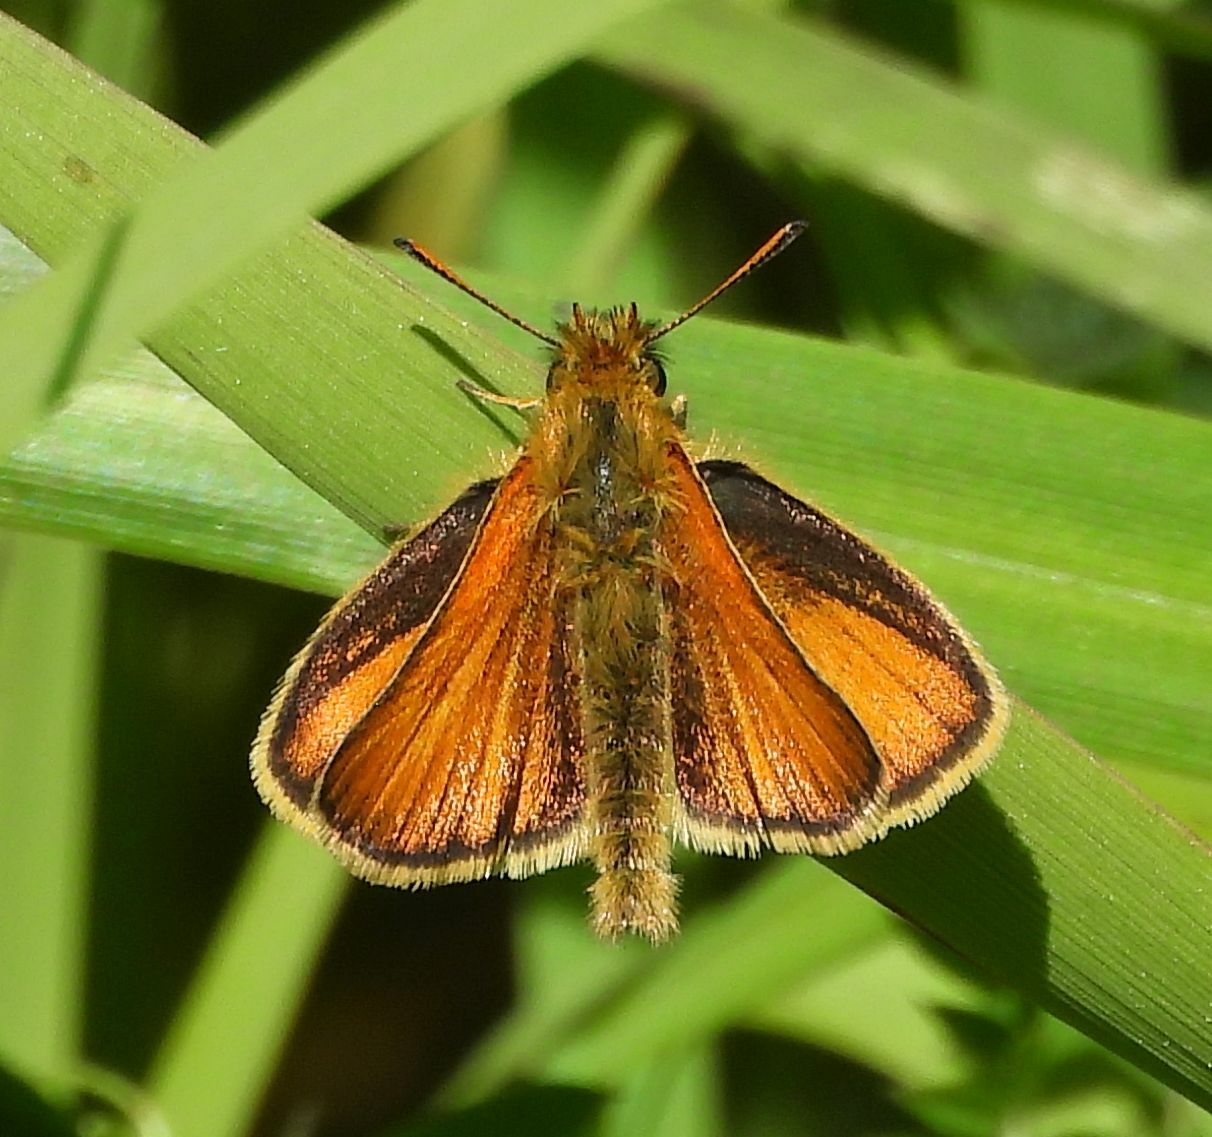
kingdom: Animalia
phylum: Arthropoda
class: Insecta
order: Lepidoptera
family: Hesperiidae
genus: Thymelicus
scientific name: Thymelicus lineola
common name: Essex skipper
